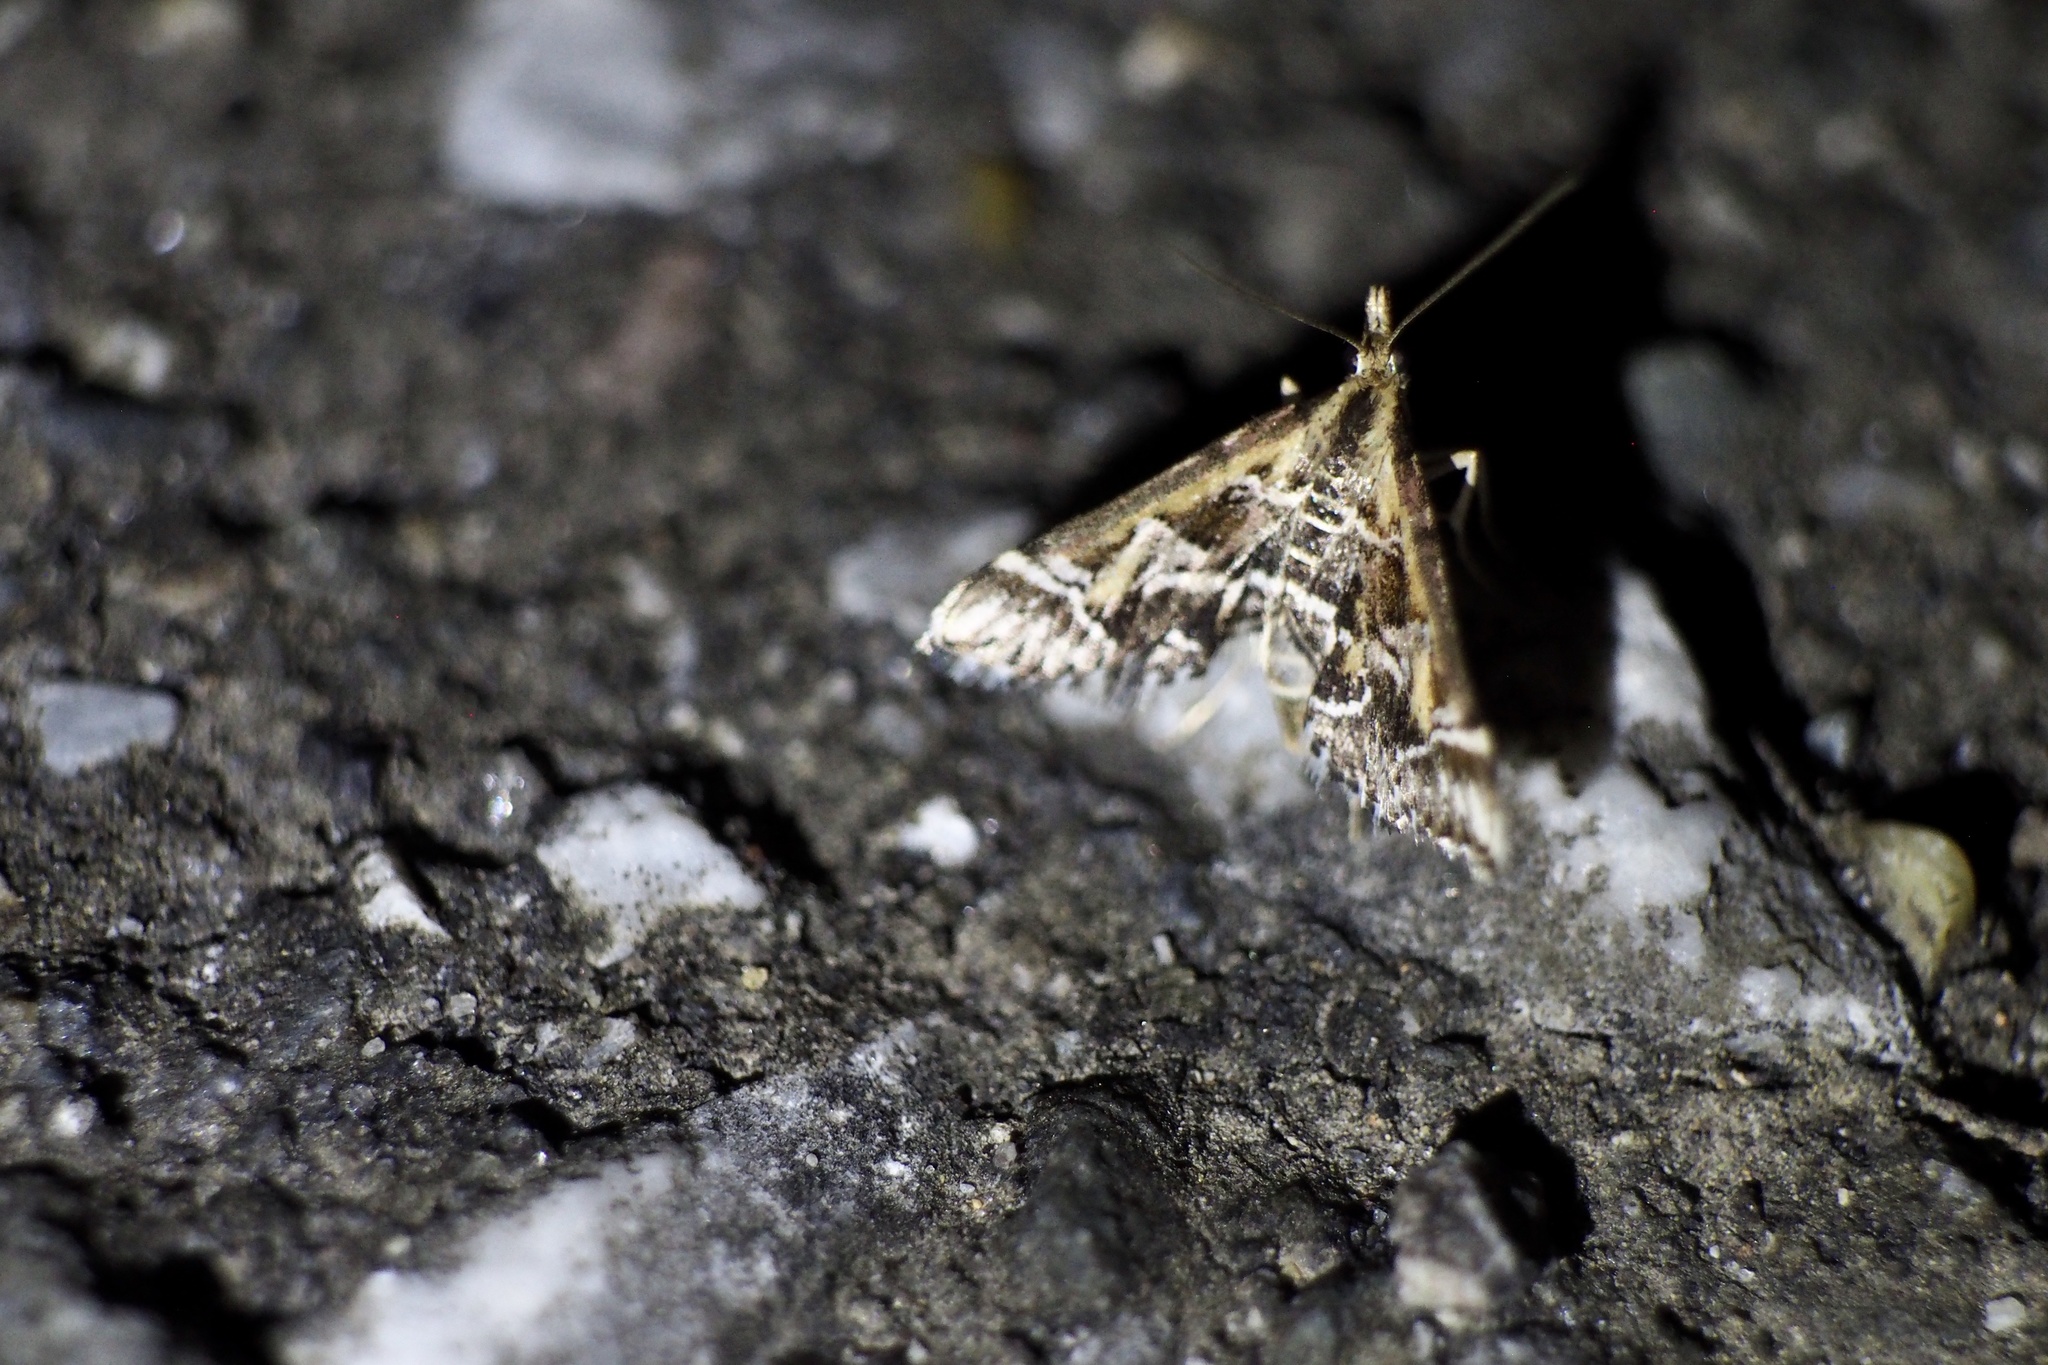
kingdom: Animalia
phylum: Arthropoda
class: Insecta
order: Lepidoptera
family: Crambidae
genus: Diasemia
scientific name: Diasemia reticularis
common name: Lettered china-mark
